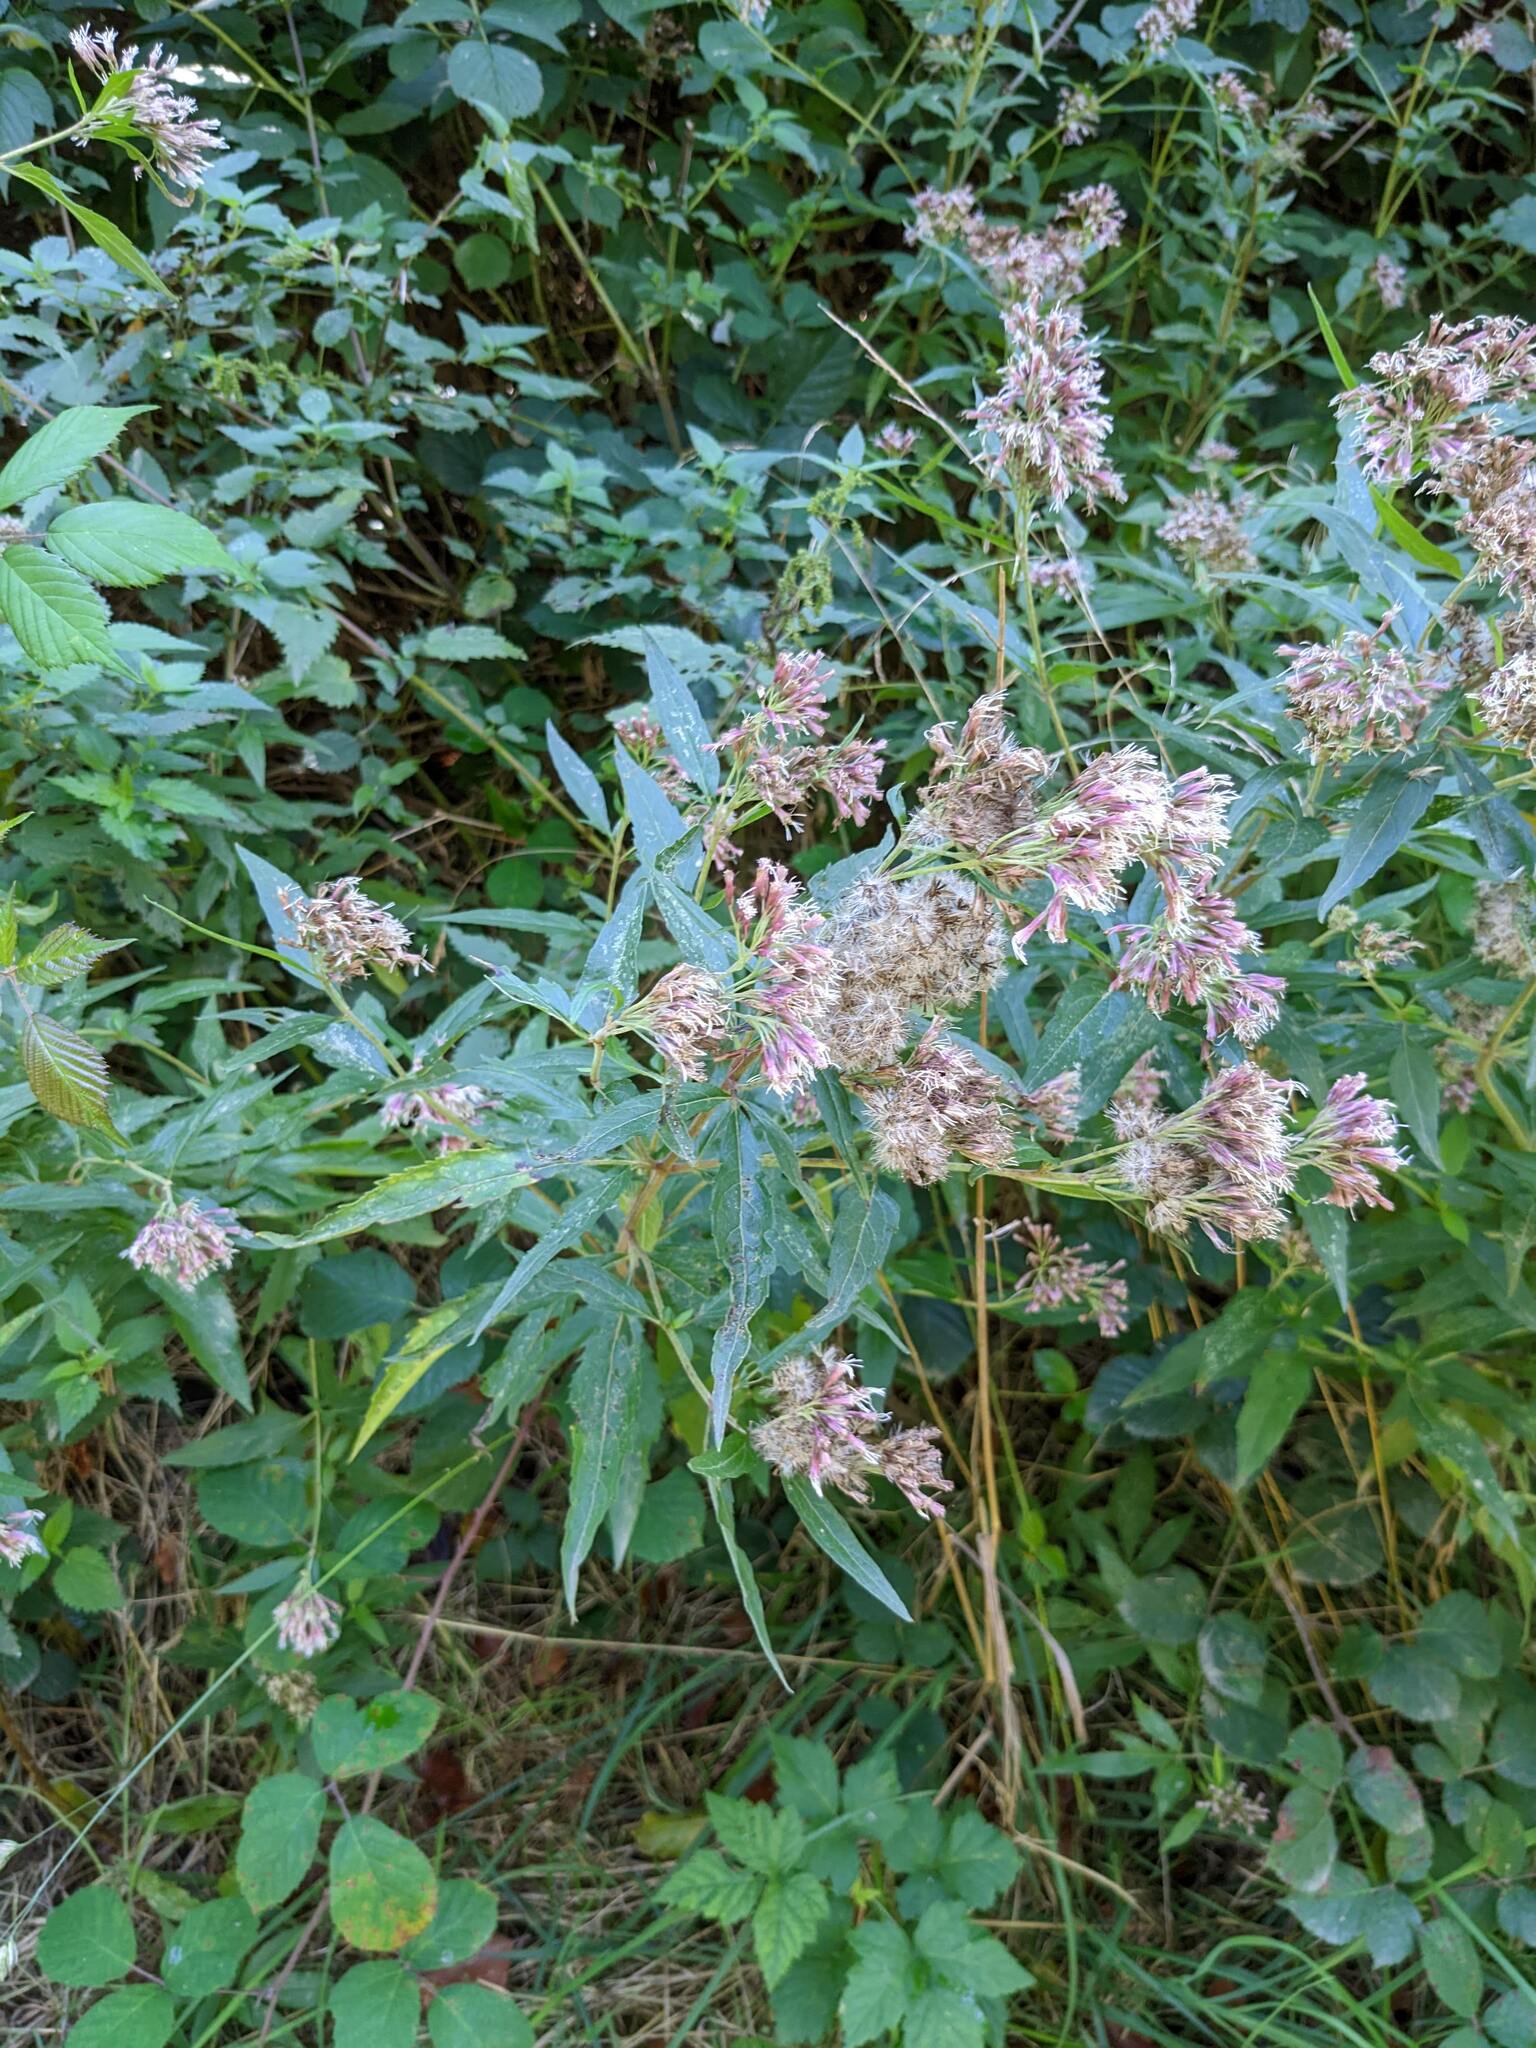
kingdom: Plantae
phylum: Tracheophyta
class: Magnoliopsida
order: Asterales
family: Asteraceae
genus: Eupatorium
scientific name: Eupatorium cannabinum
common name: Hemp-agrimony
